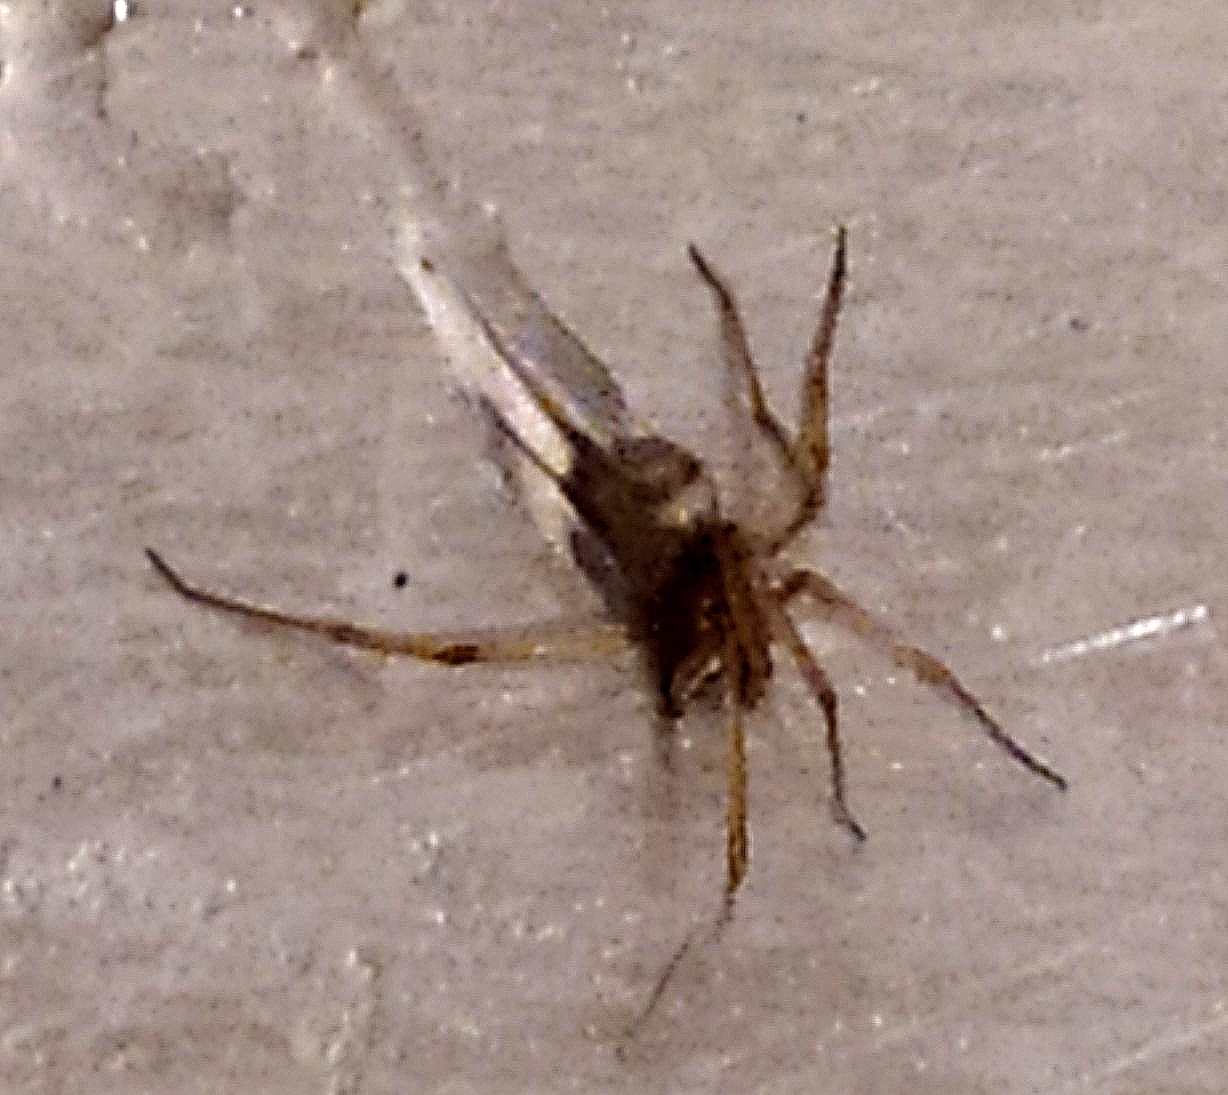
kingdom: Animalia
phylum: Arthropoda
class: Arachnida
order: Araneae
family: Theridiidae
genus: Steatoda
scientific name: Steatoda grossa
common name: False black widow
